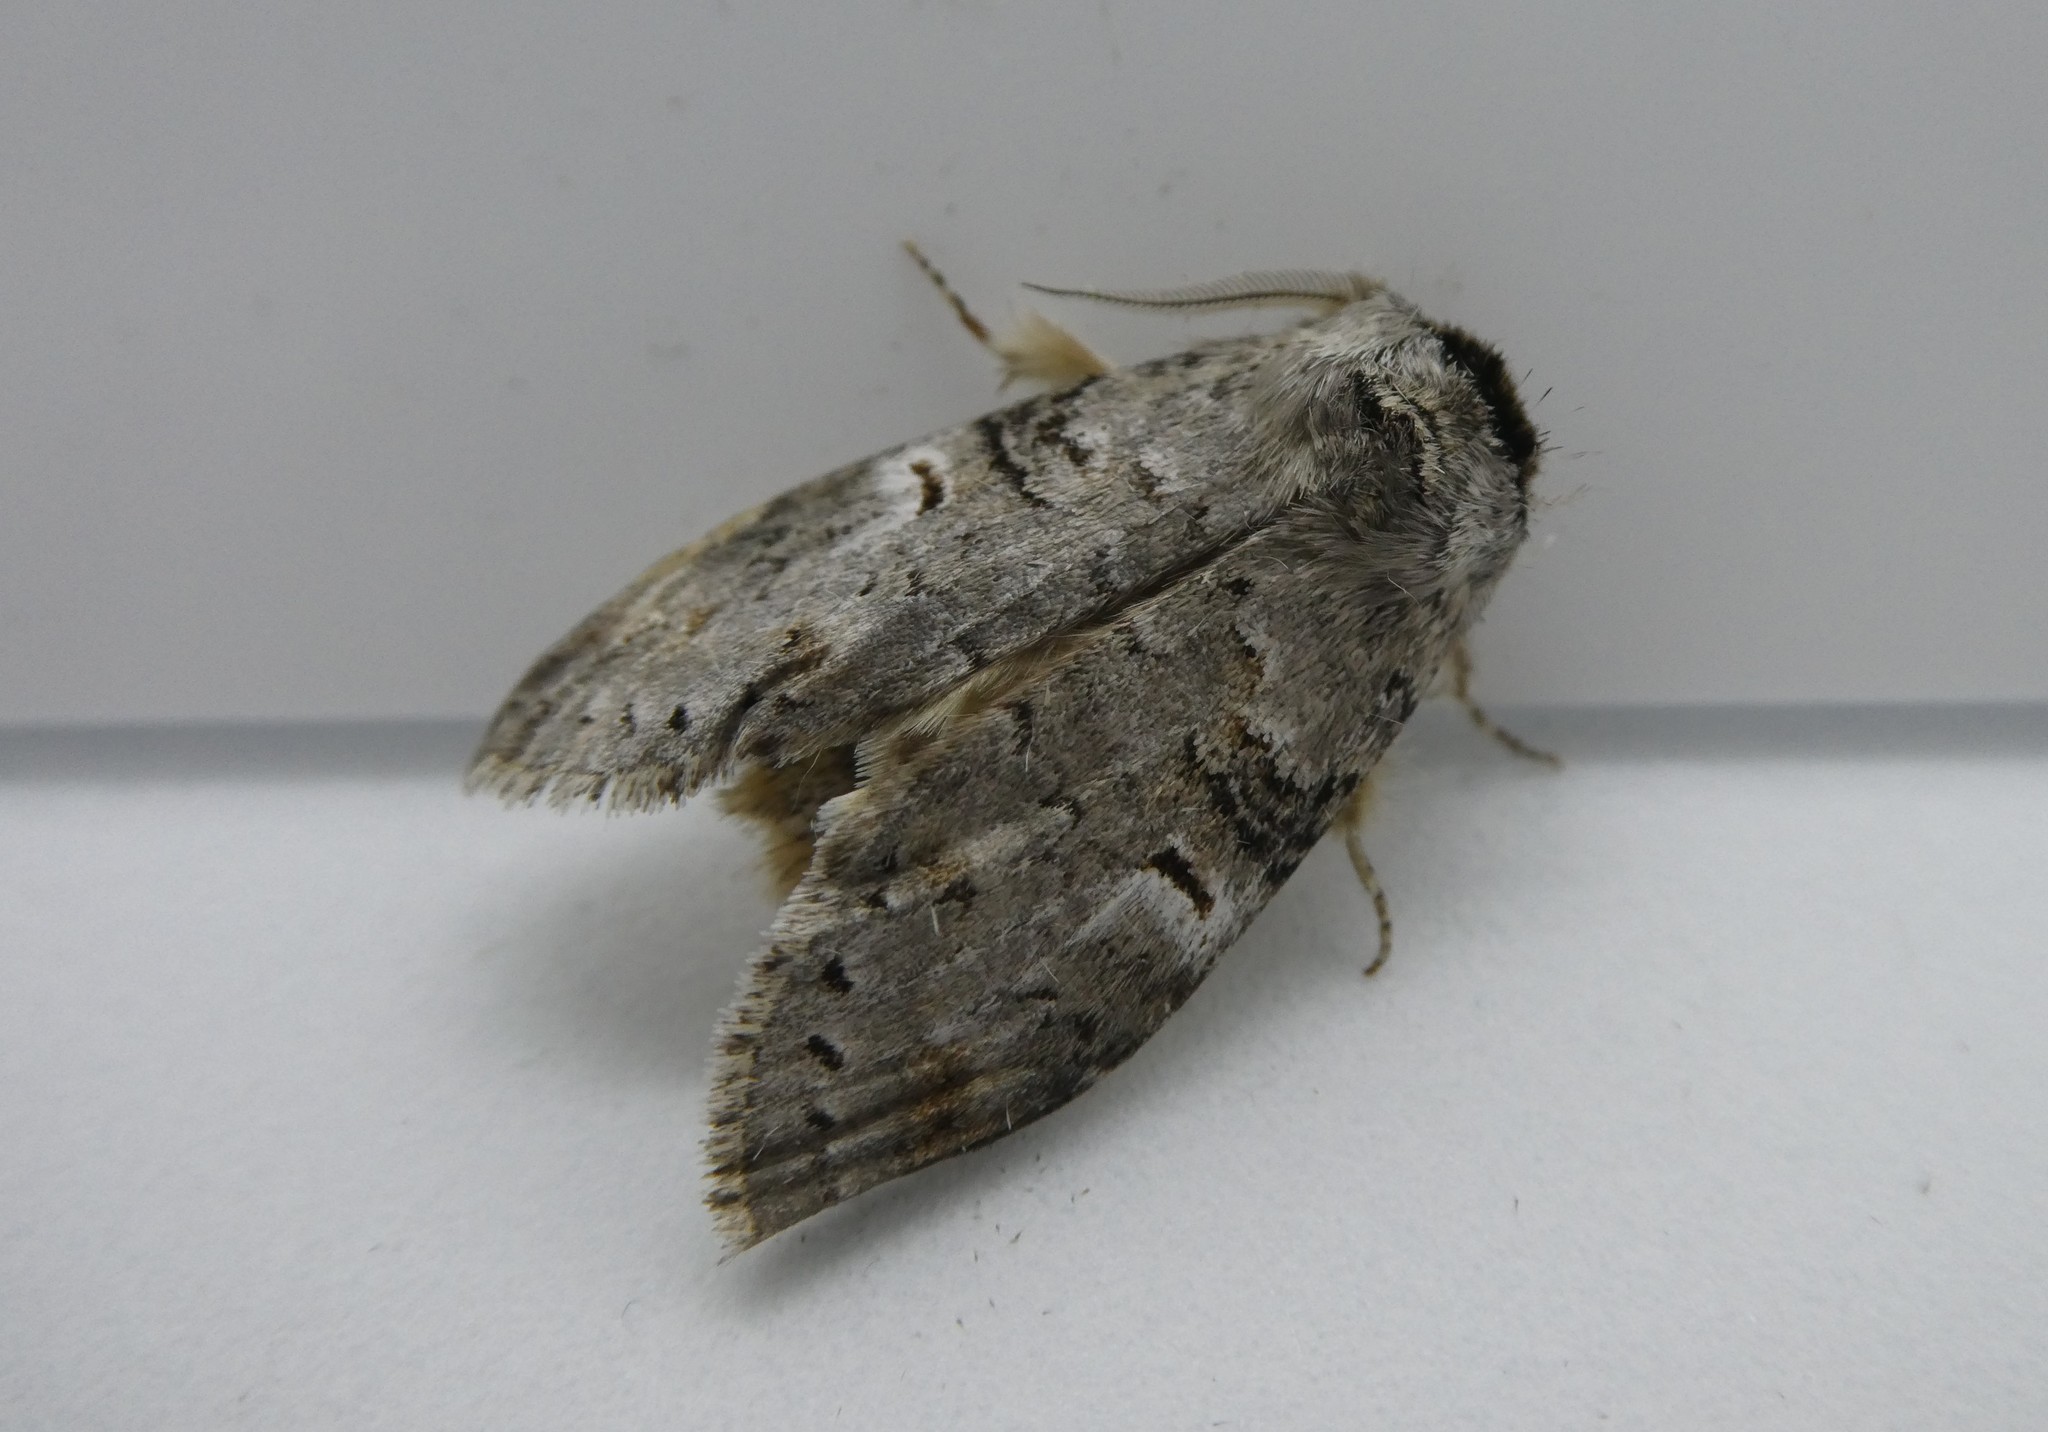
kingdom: Animalia
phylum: Arthropoda
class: Insecta
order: Lepidoptera
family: Notodontidae
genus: Ellida
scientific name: Ellida caniplaga
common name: Linden prominent
